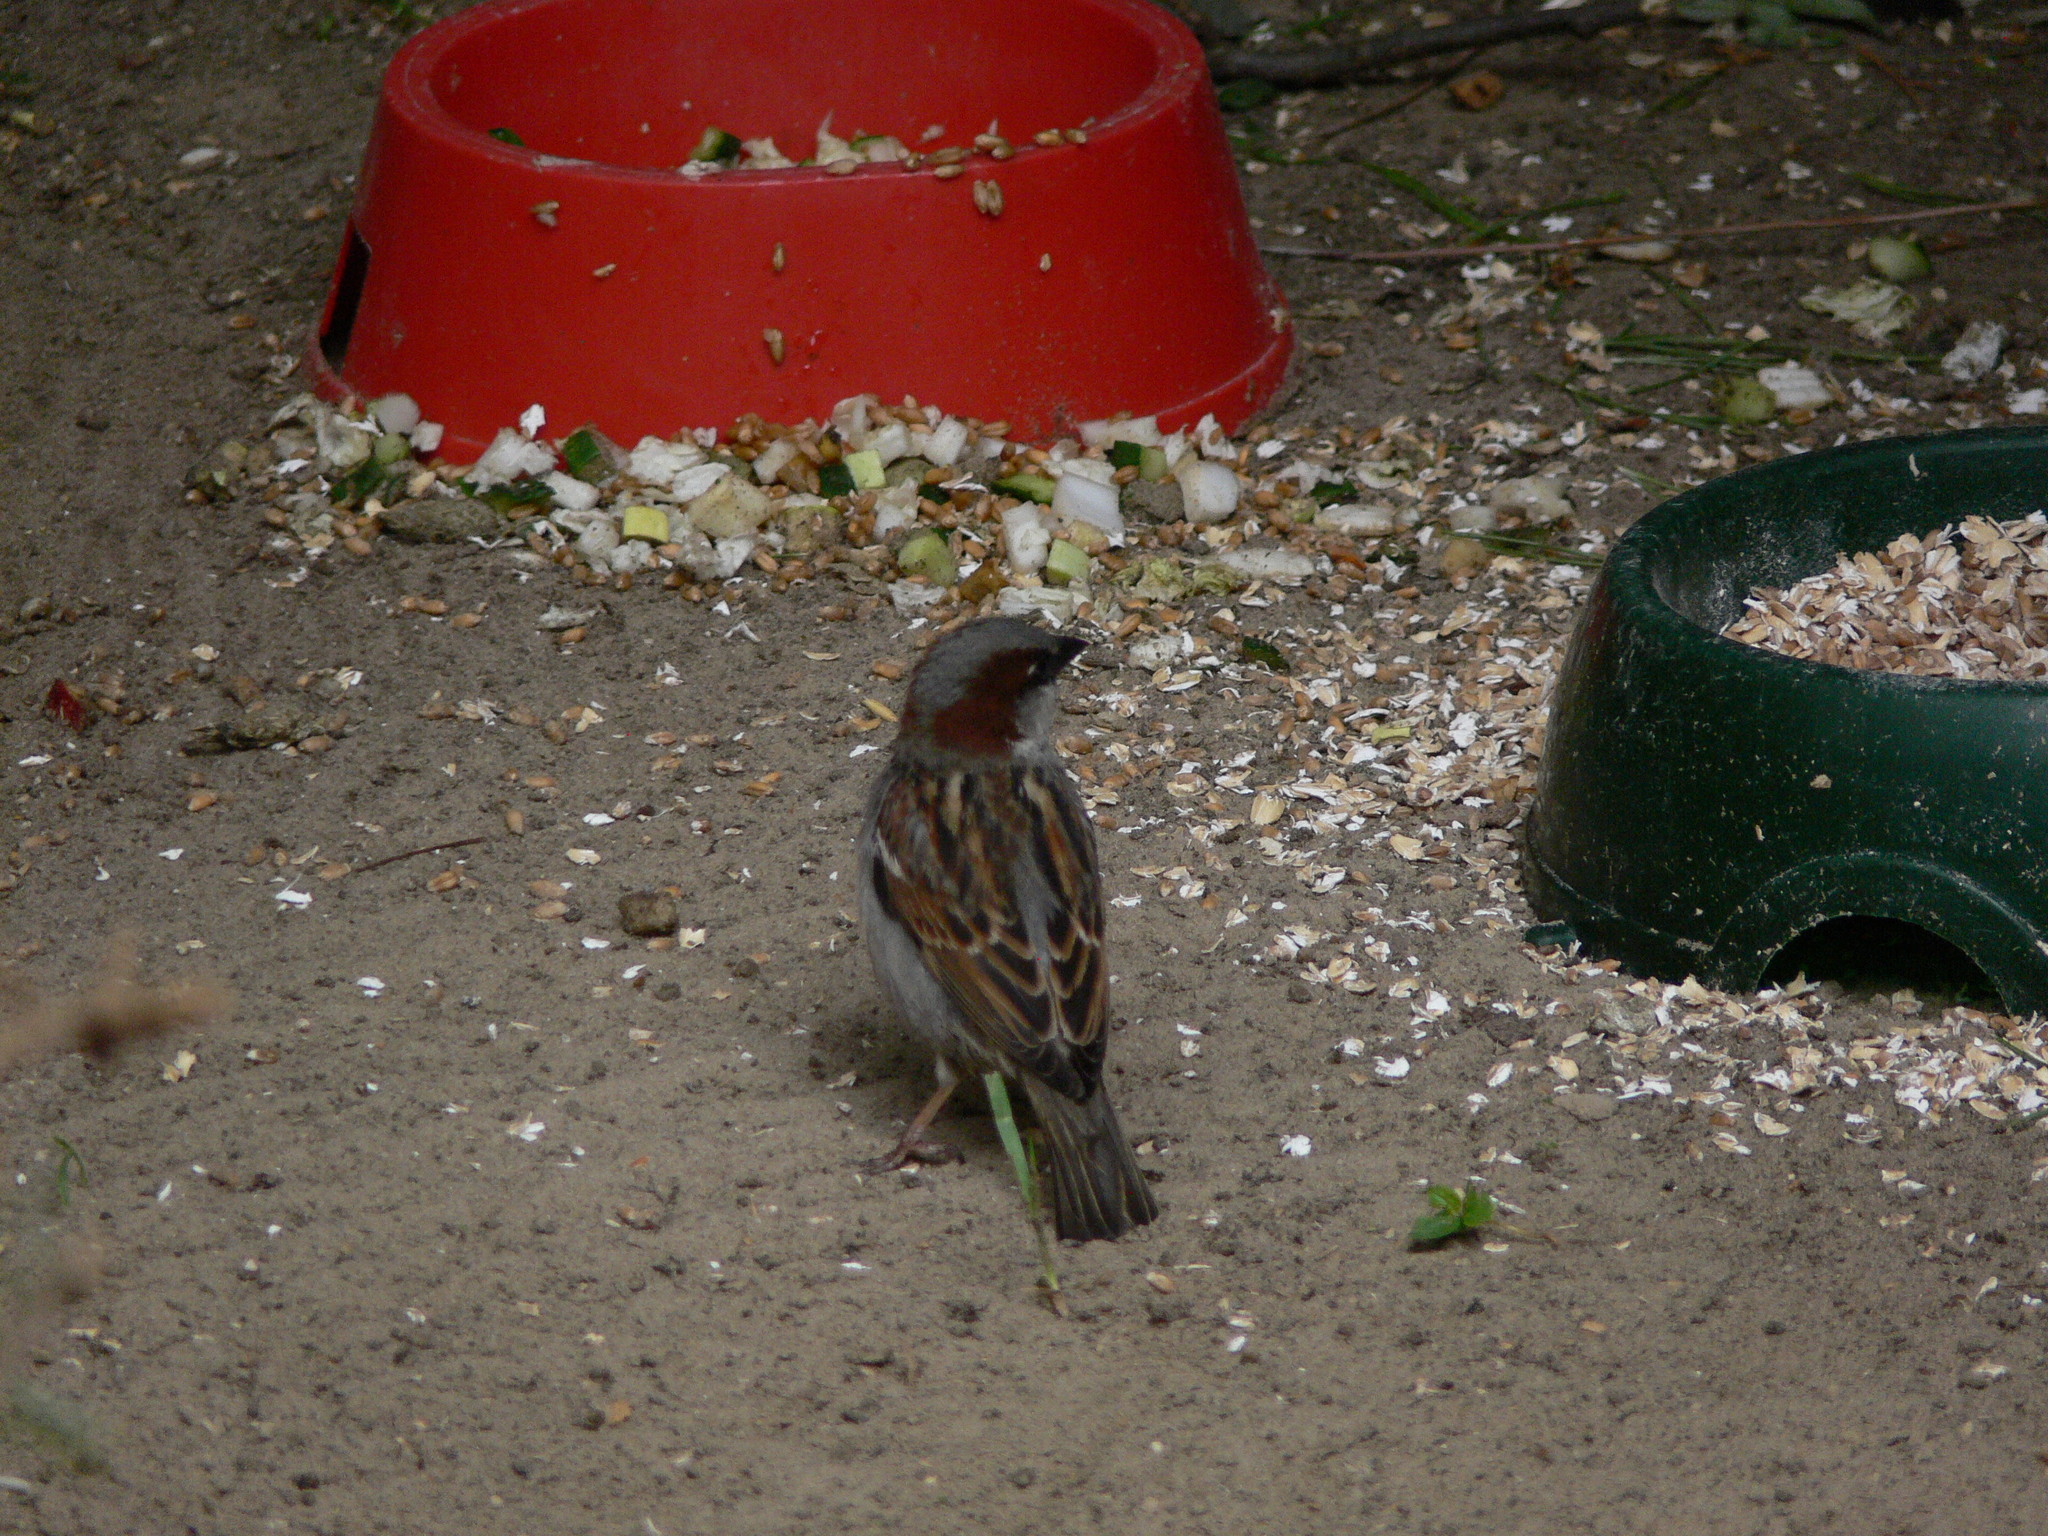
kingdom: Animalia
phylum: Chordata
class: Aves
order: Passeriformes
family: Passeridae
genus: Passer
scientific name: Passer domesticus
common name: House sparrow
